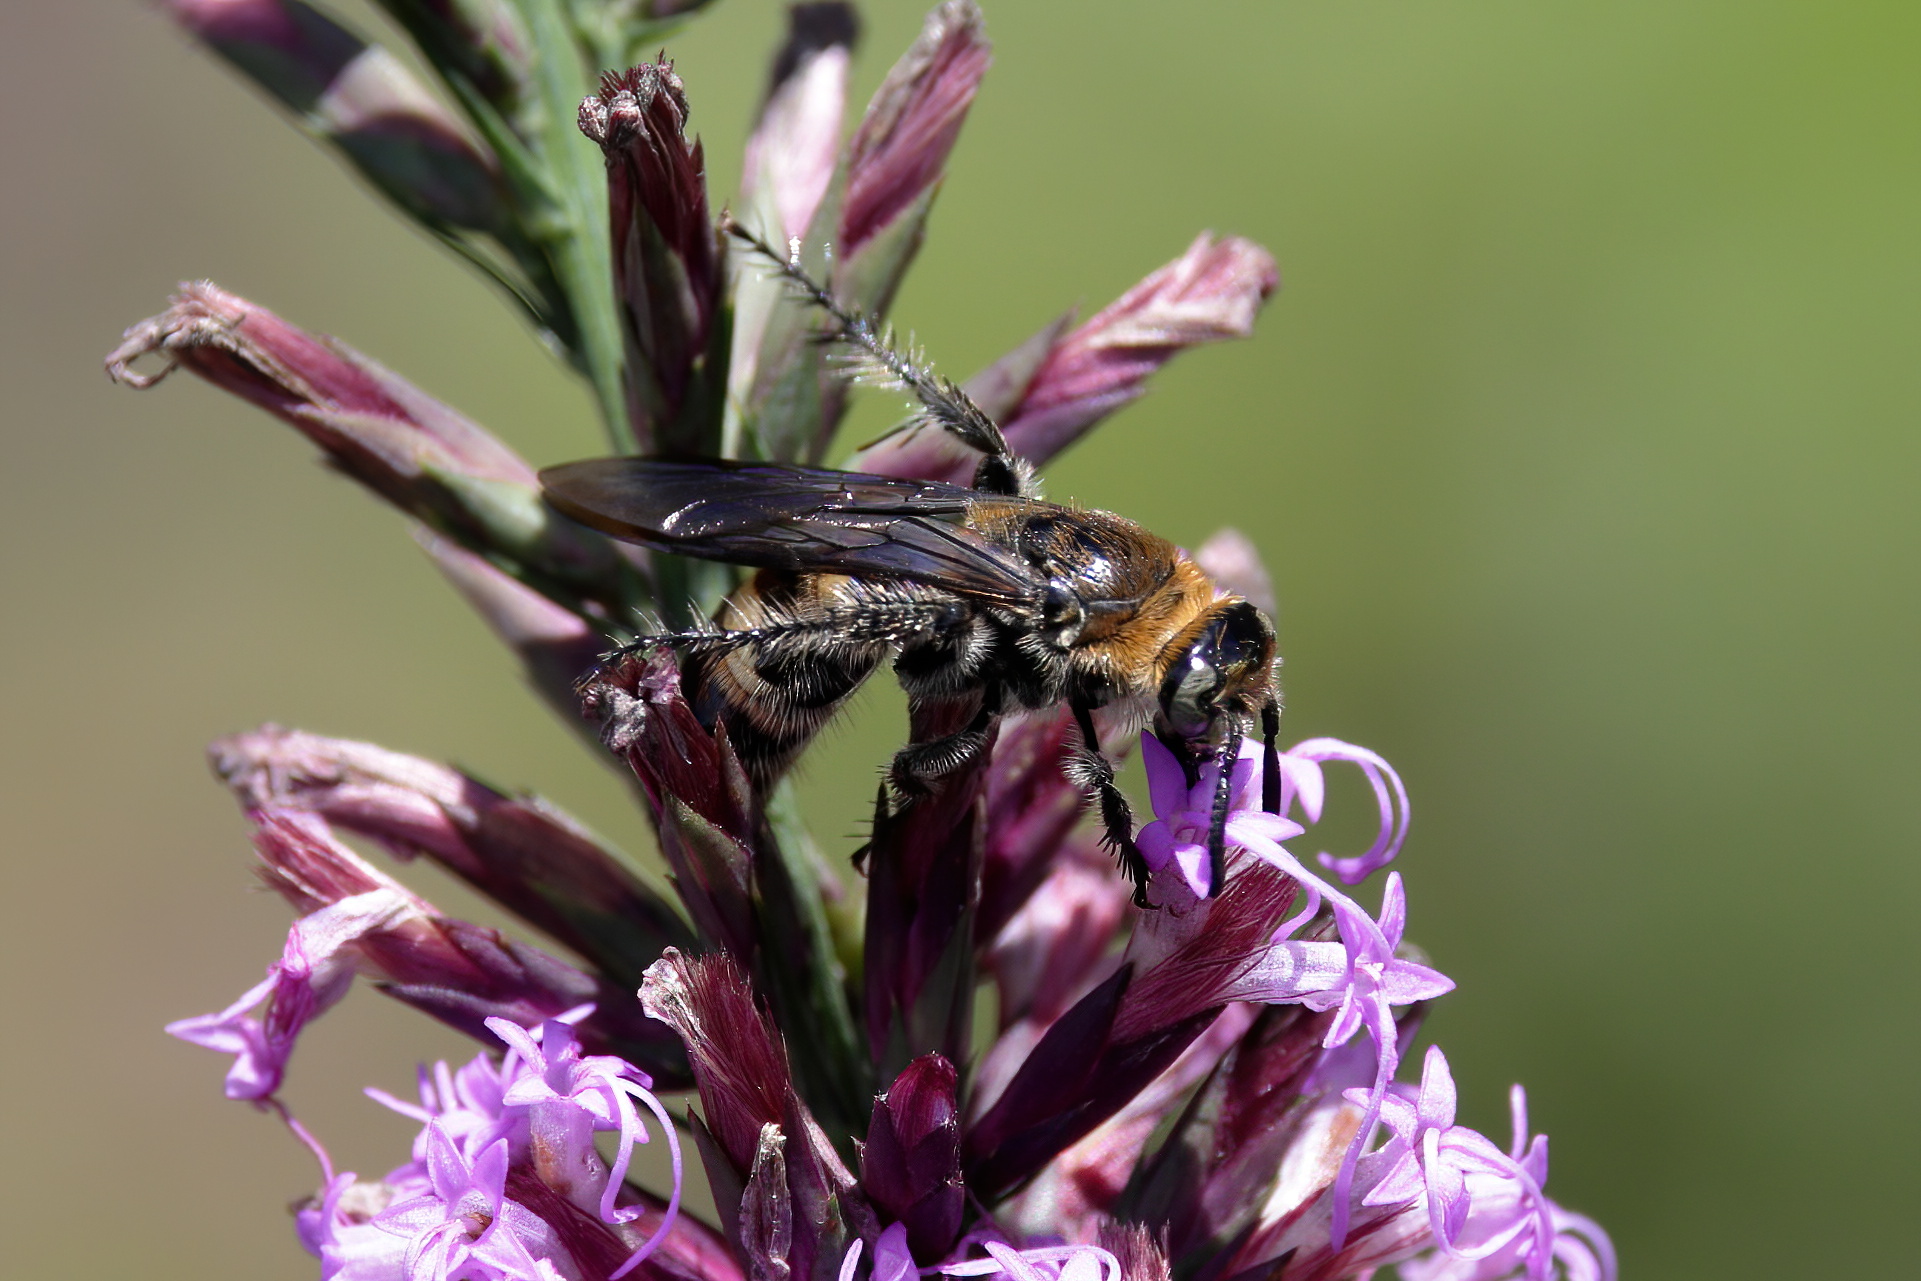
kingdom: Animalia
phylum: Arthropoda
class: Insecta
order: Hymenoptera
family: Scoliidae
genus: Dielis
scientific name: Dielis
